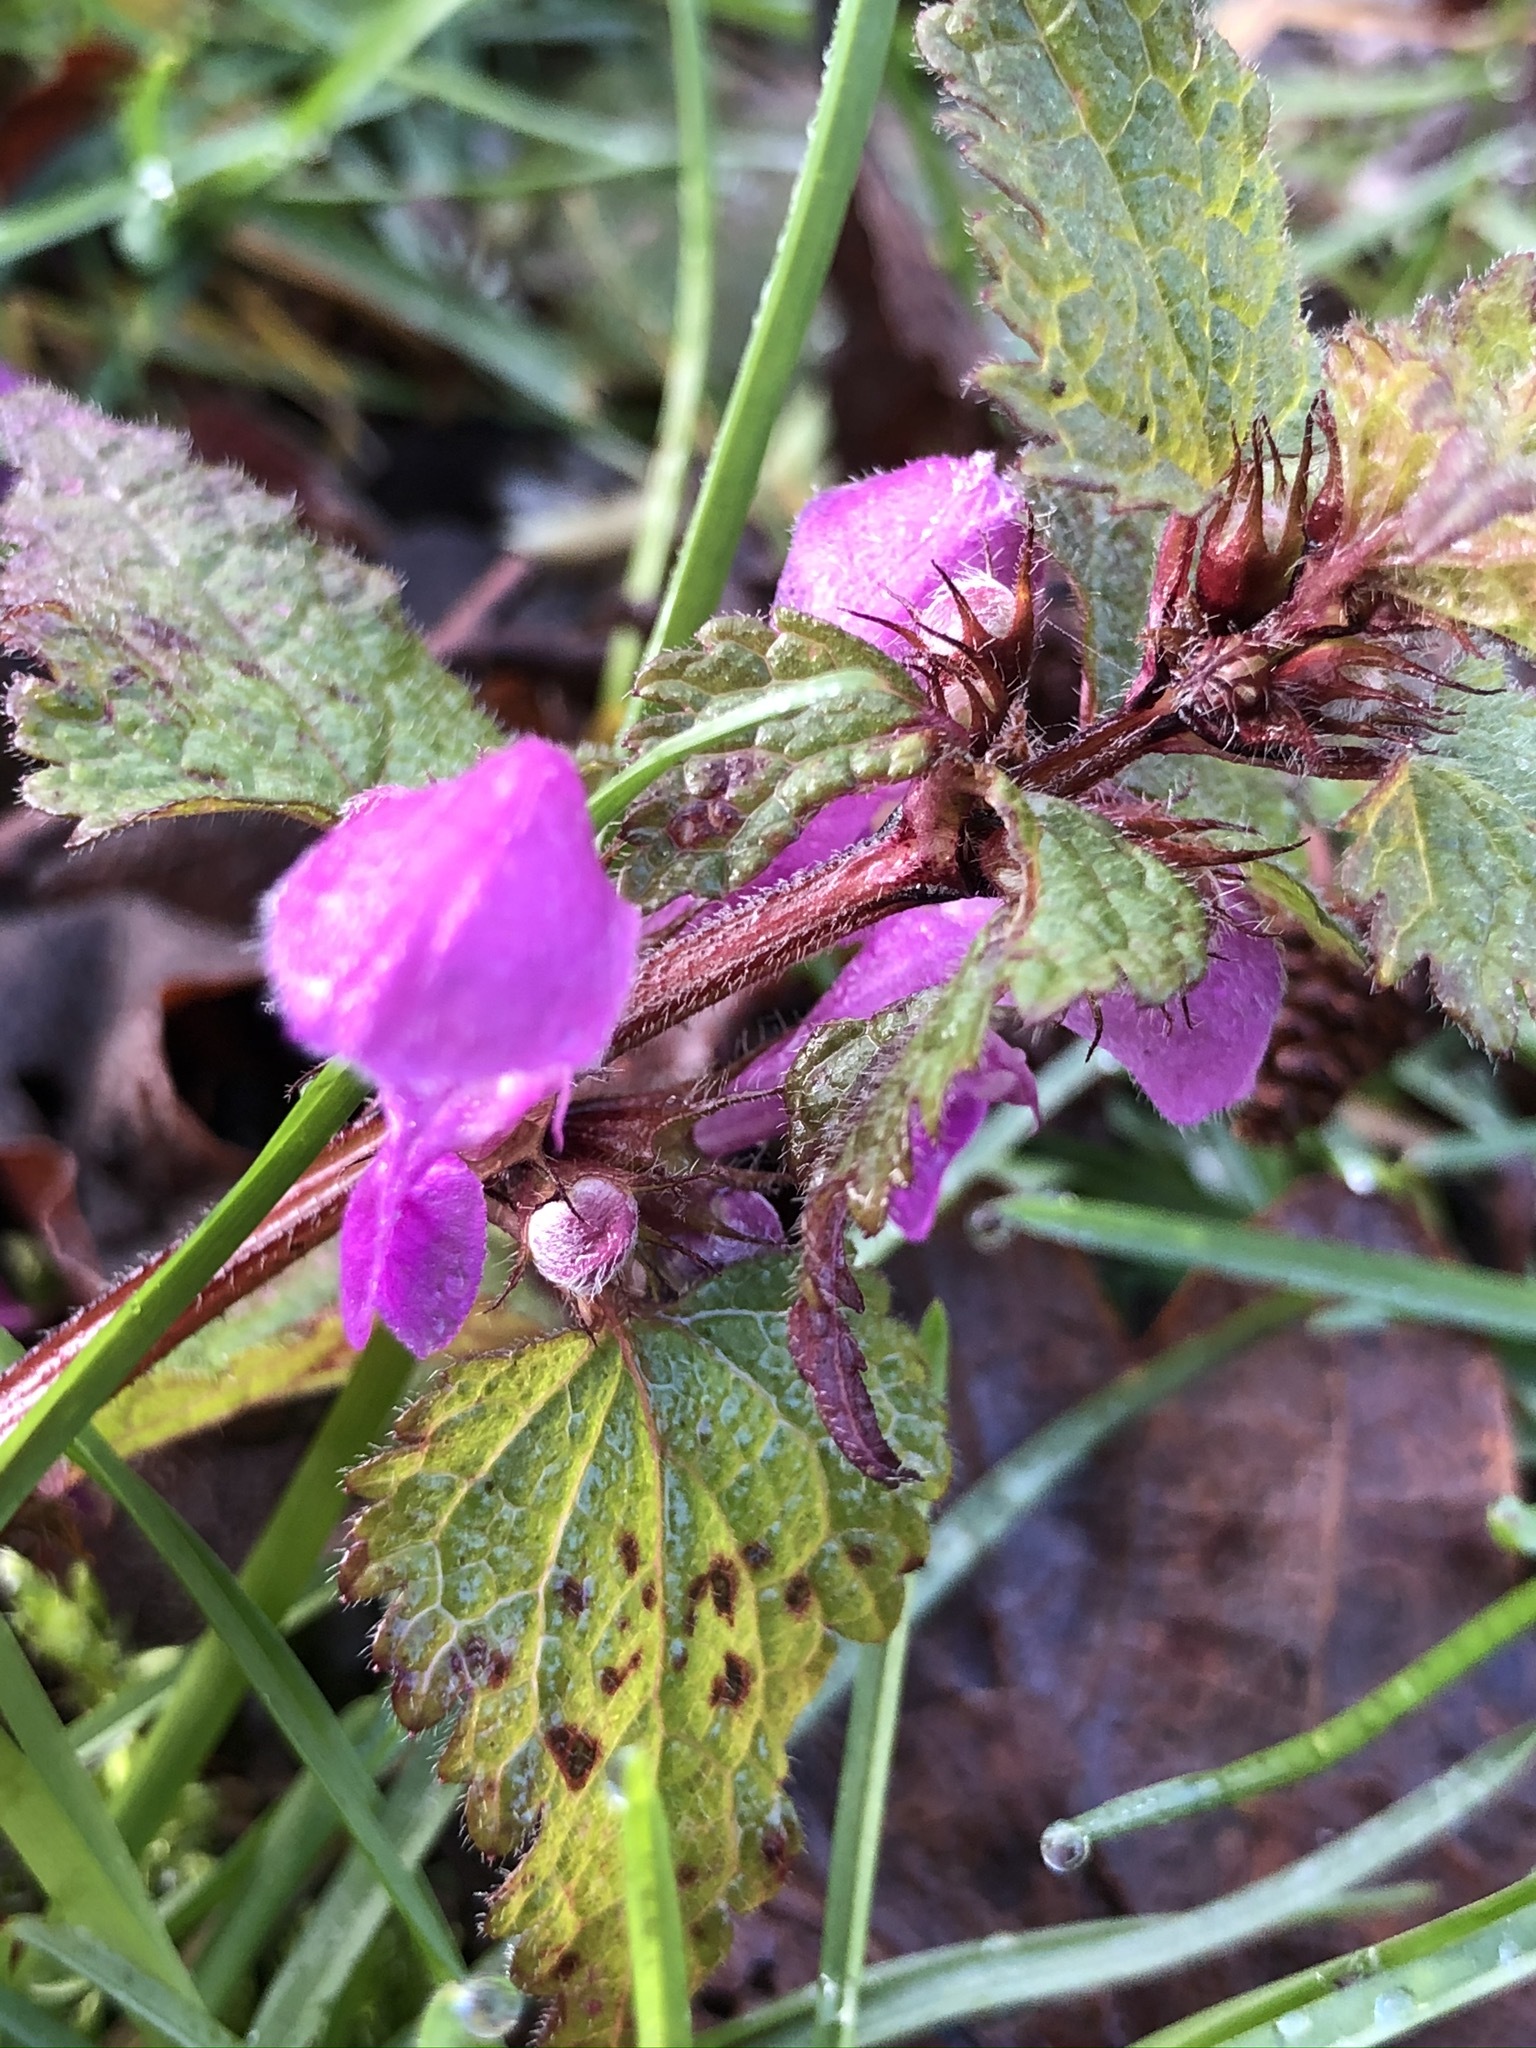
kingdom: Plantae
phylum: Tracheophyta
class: Magnoliopsida
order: Lamiales
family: Lamiaceae
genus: Lamium
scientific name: Lamium maculatum
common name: Spotted dead-nettle
